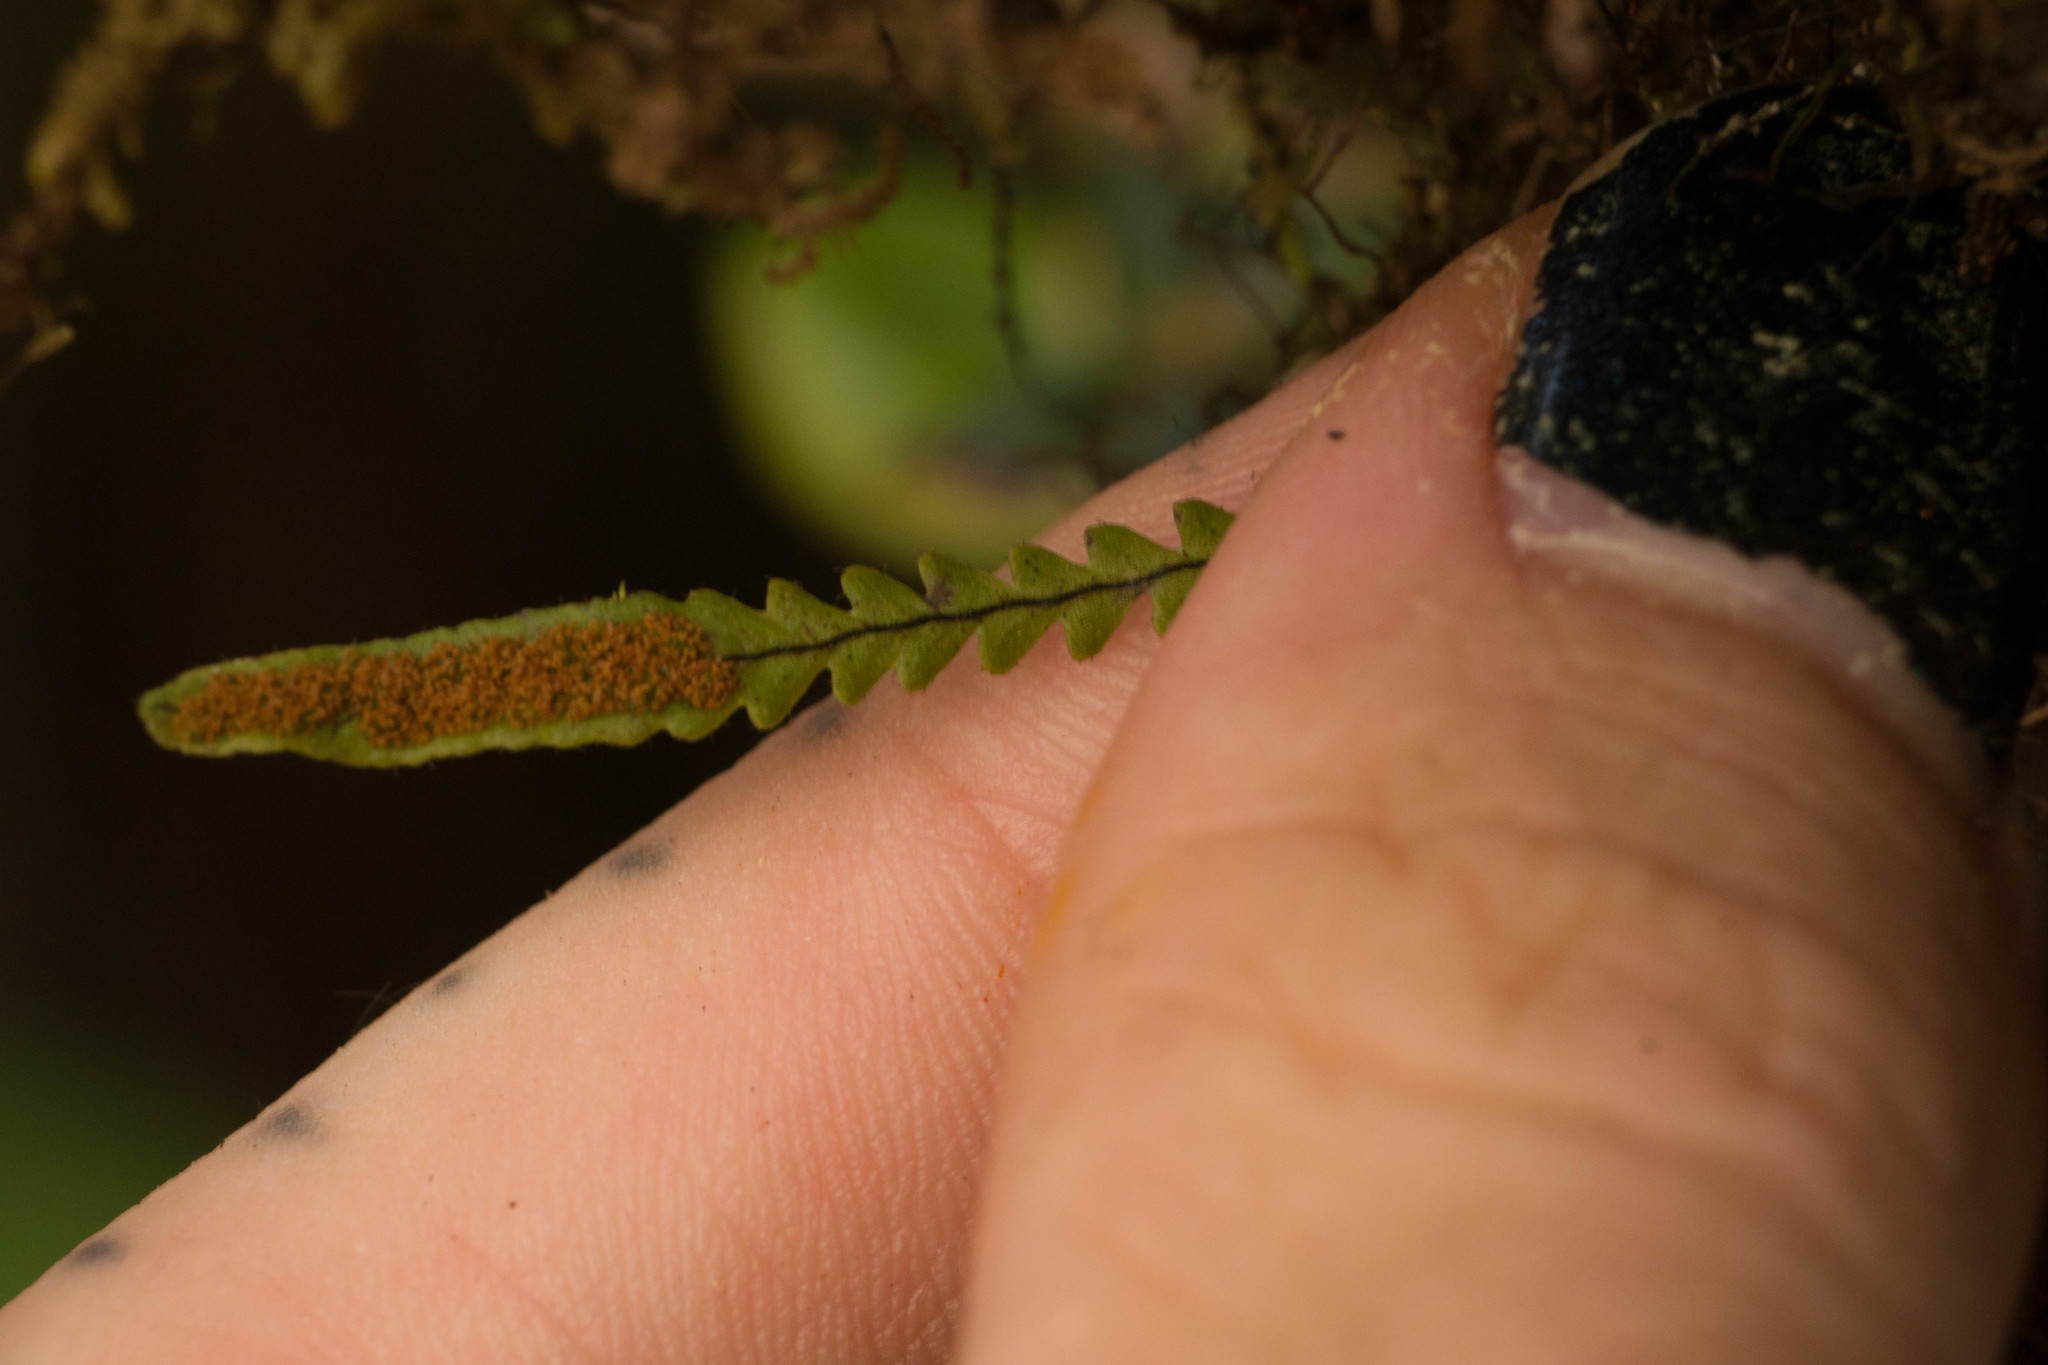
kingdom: Plantae
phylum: Tracheophyta
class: Polypodiopsida
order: Polypodiales
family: Polypodiaceae
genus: Stenogrammitis
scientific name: Stenogrammitis saffordii
